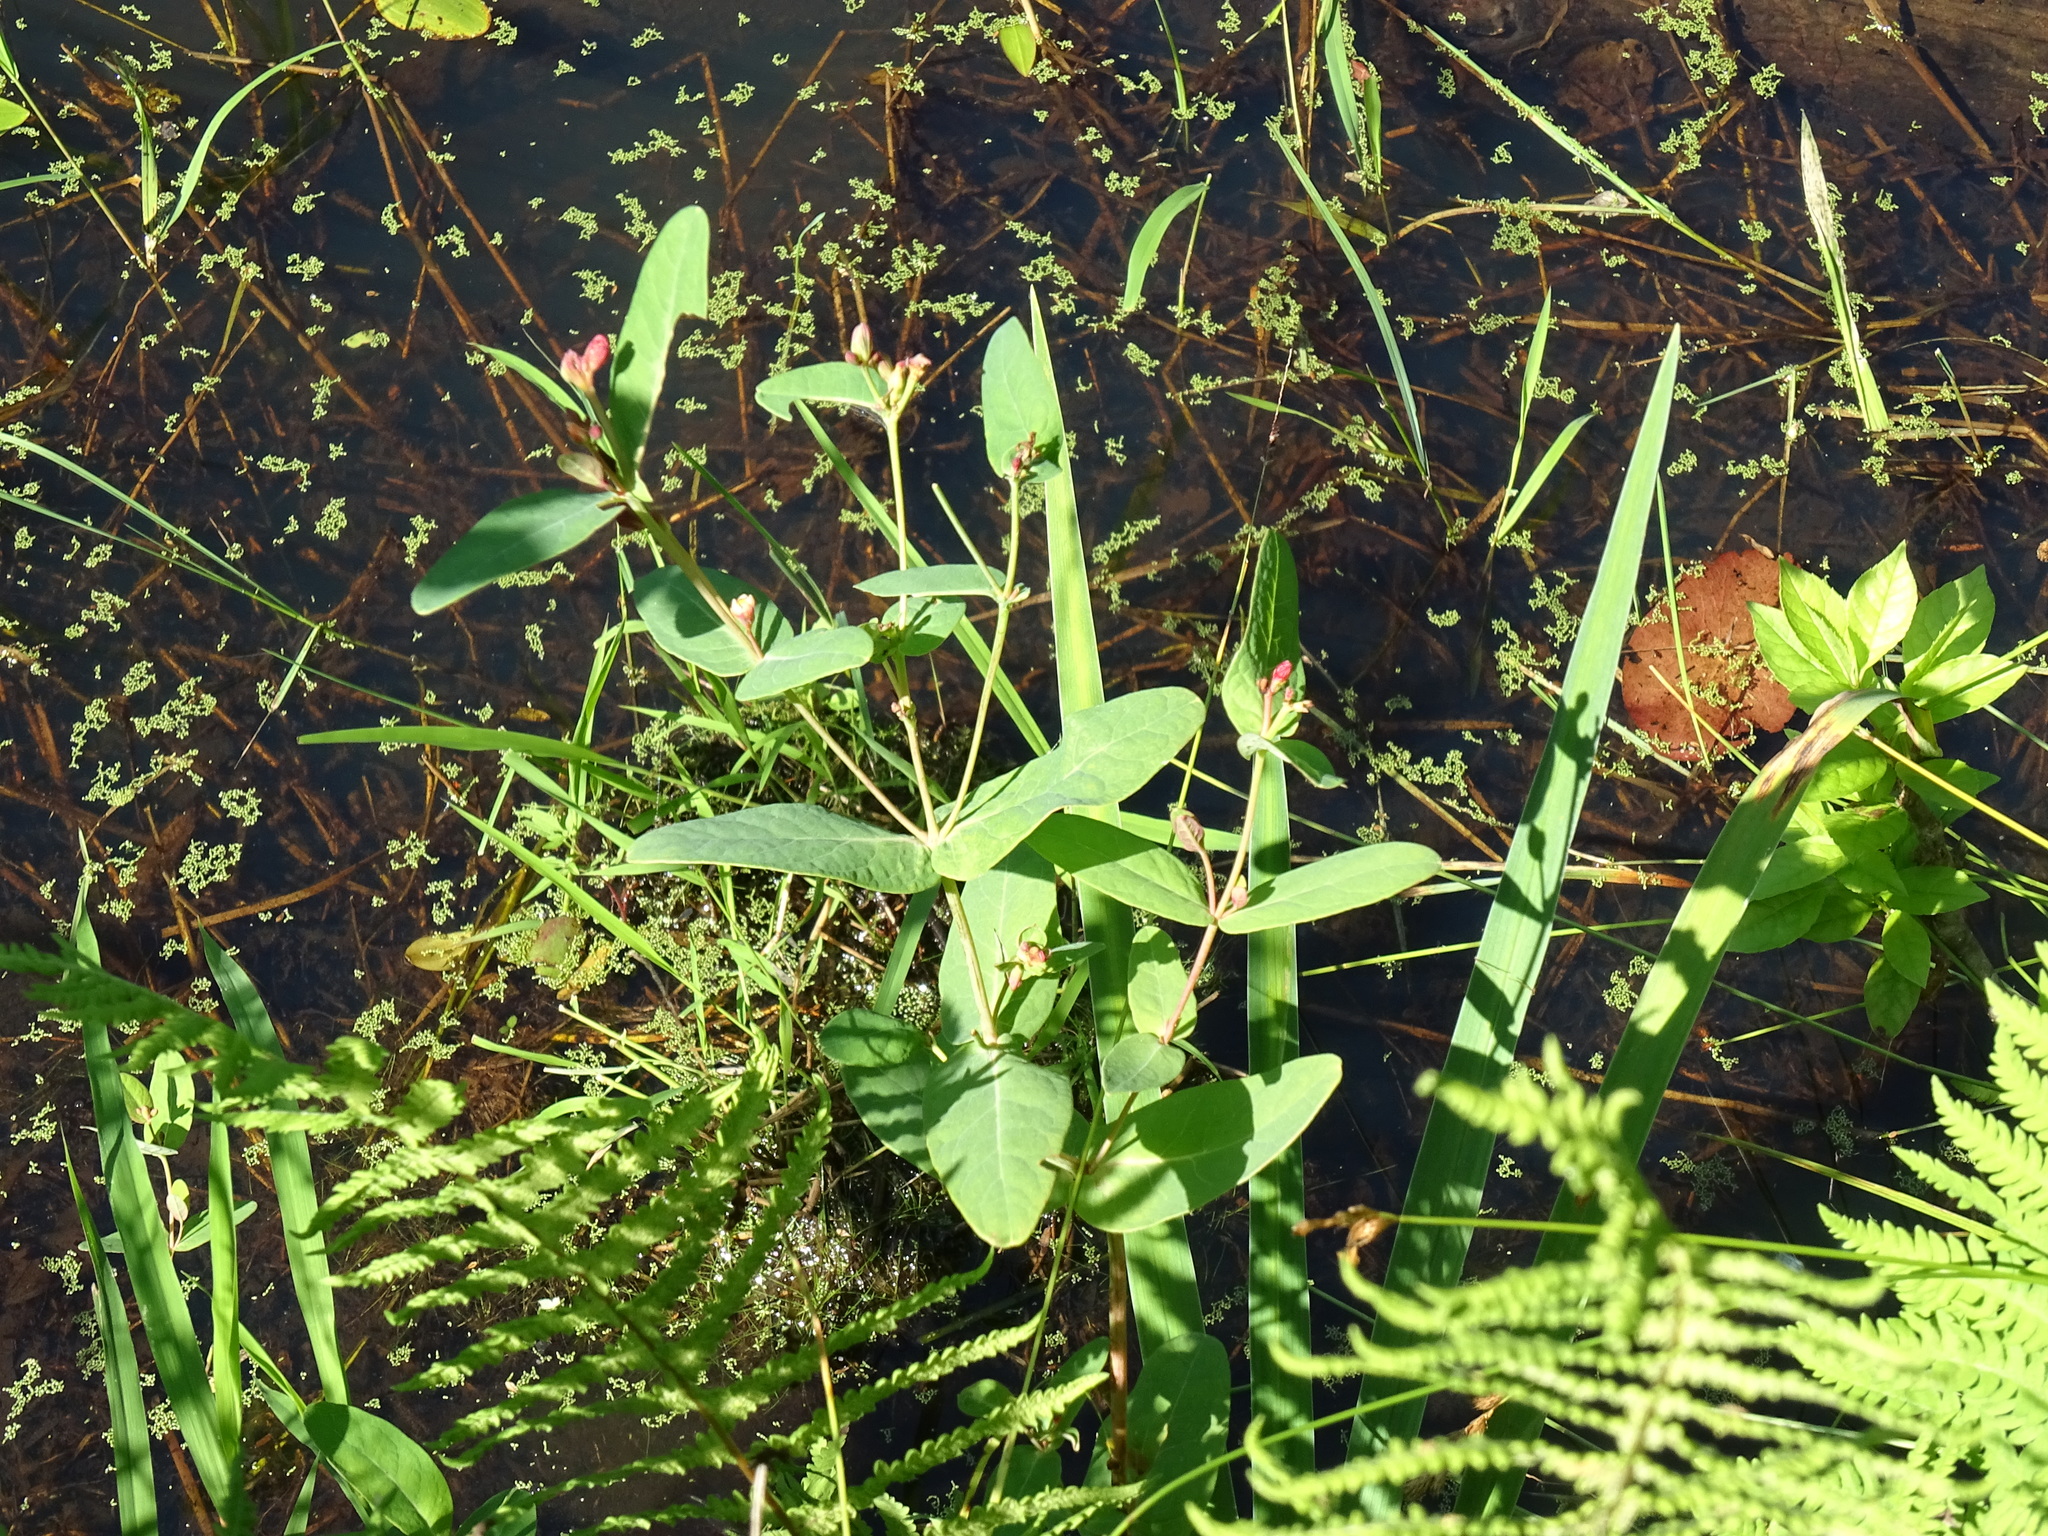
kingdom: Plantae
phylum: Tracheophyta
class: Magnoliopsida
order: Malpighiales
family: Hypericaceae
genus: Triadenum
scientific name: Triadenum fraseri
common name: Fraser's marsh st. johnswort
